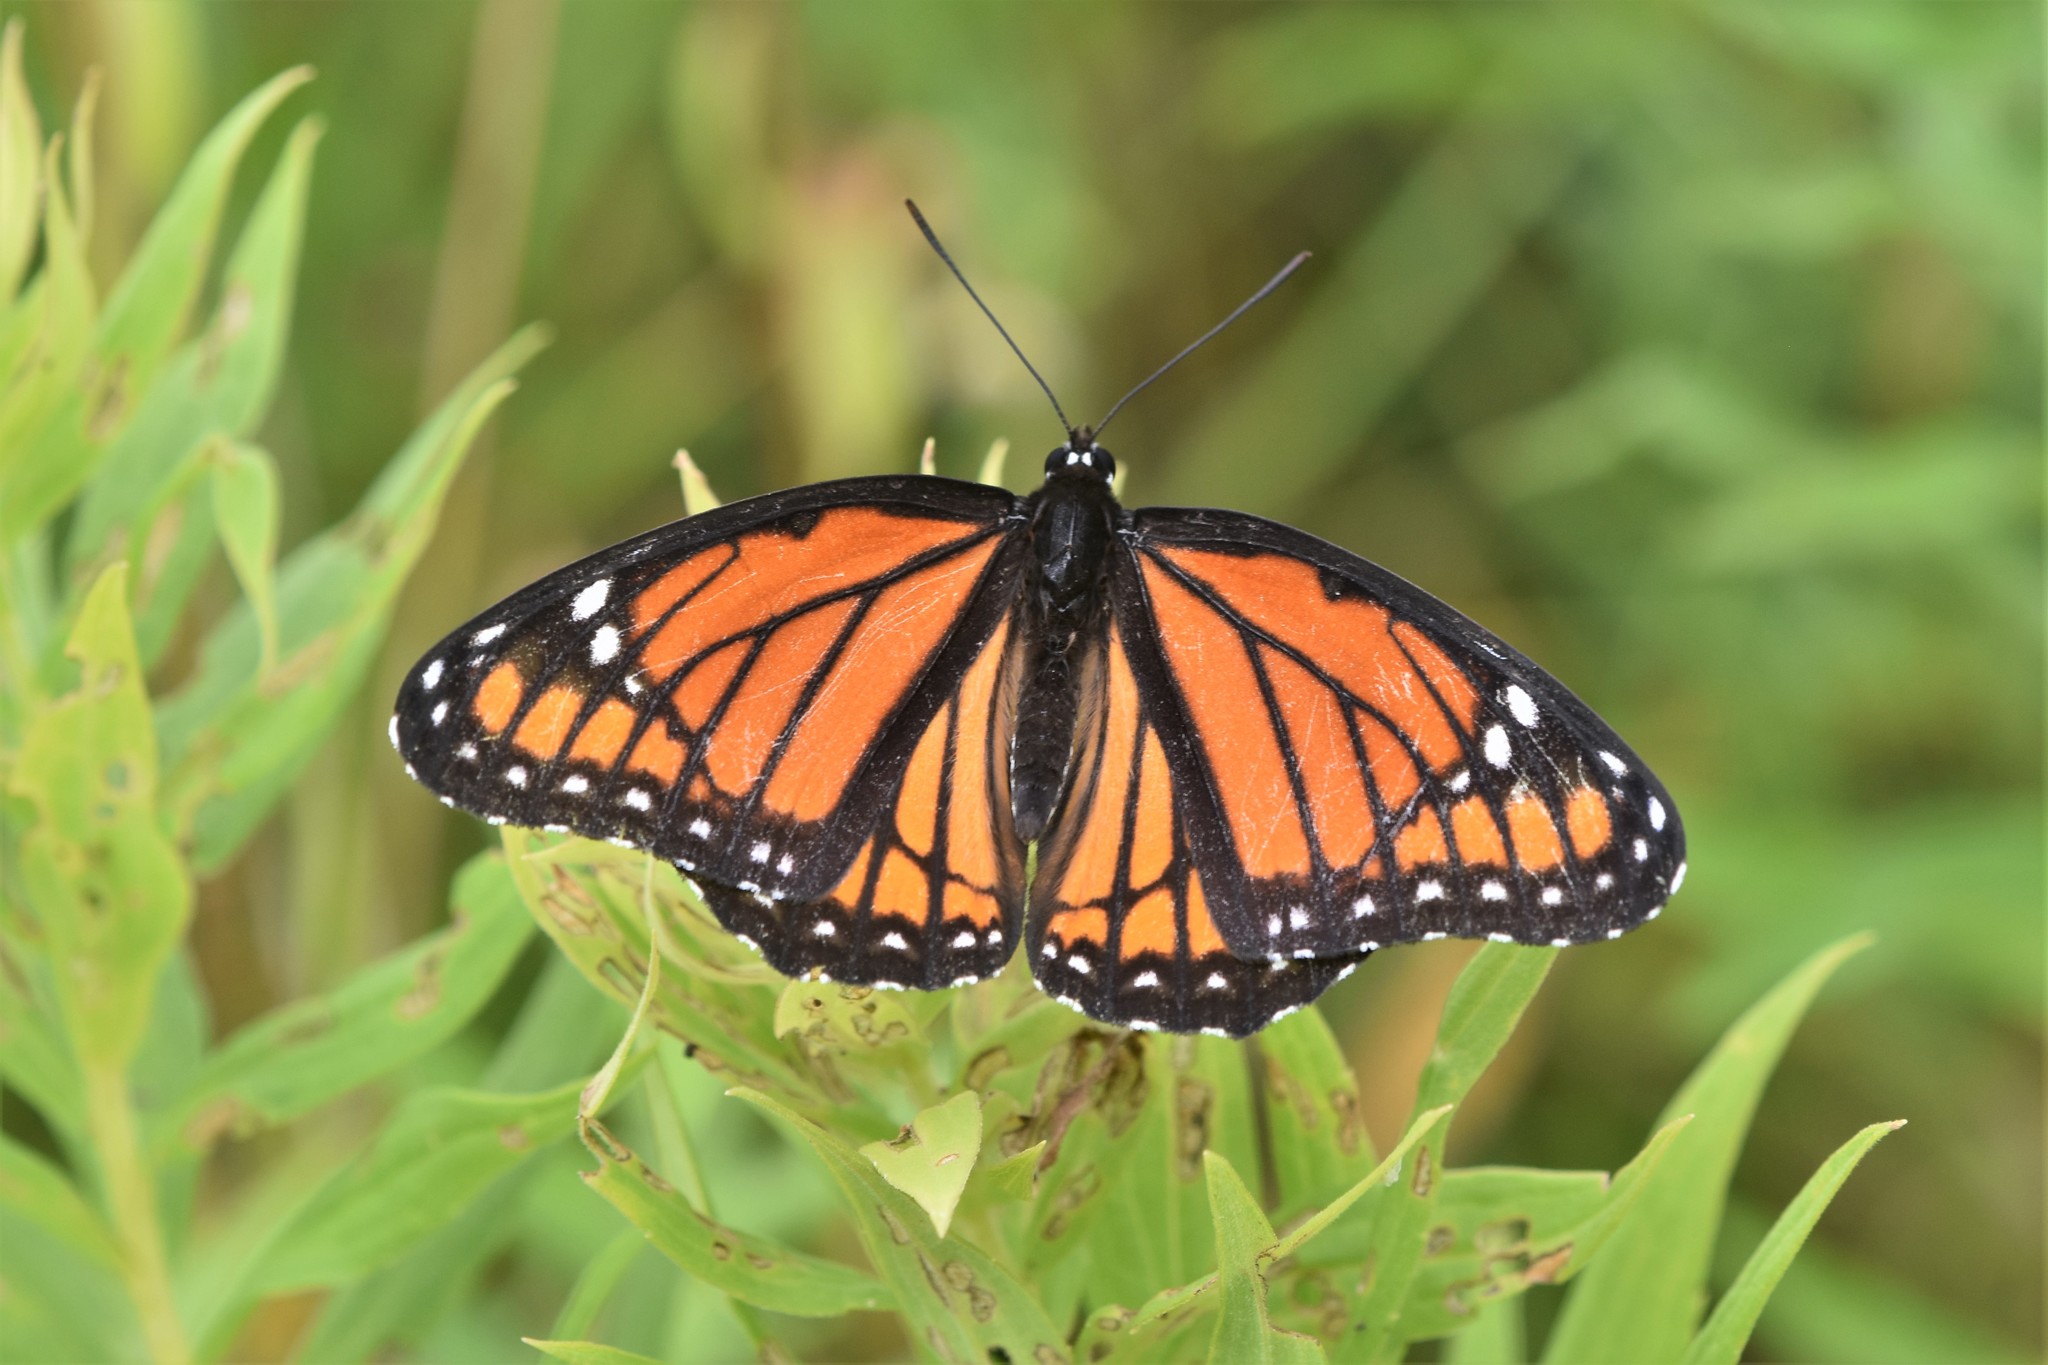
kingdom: Animalia
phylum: Arthropoda
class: Insecta
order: Lepidoptera
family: Nymphalidae
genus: Limenitis
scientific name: Limenitis archippus
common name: Viceroy
